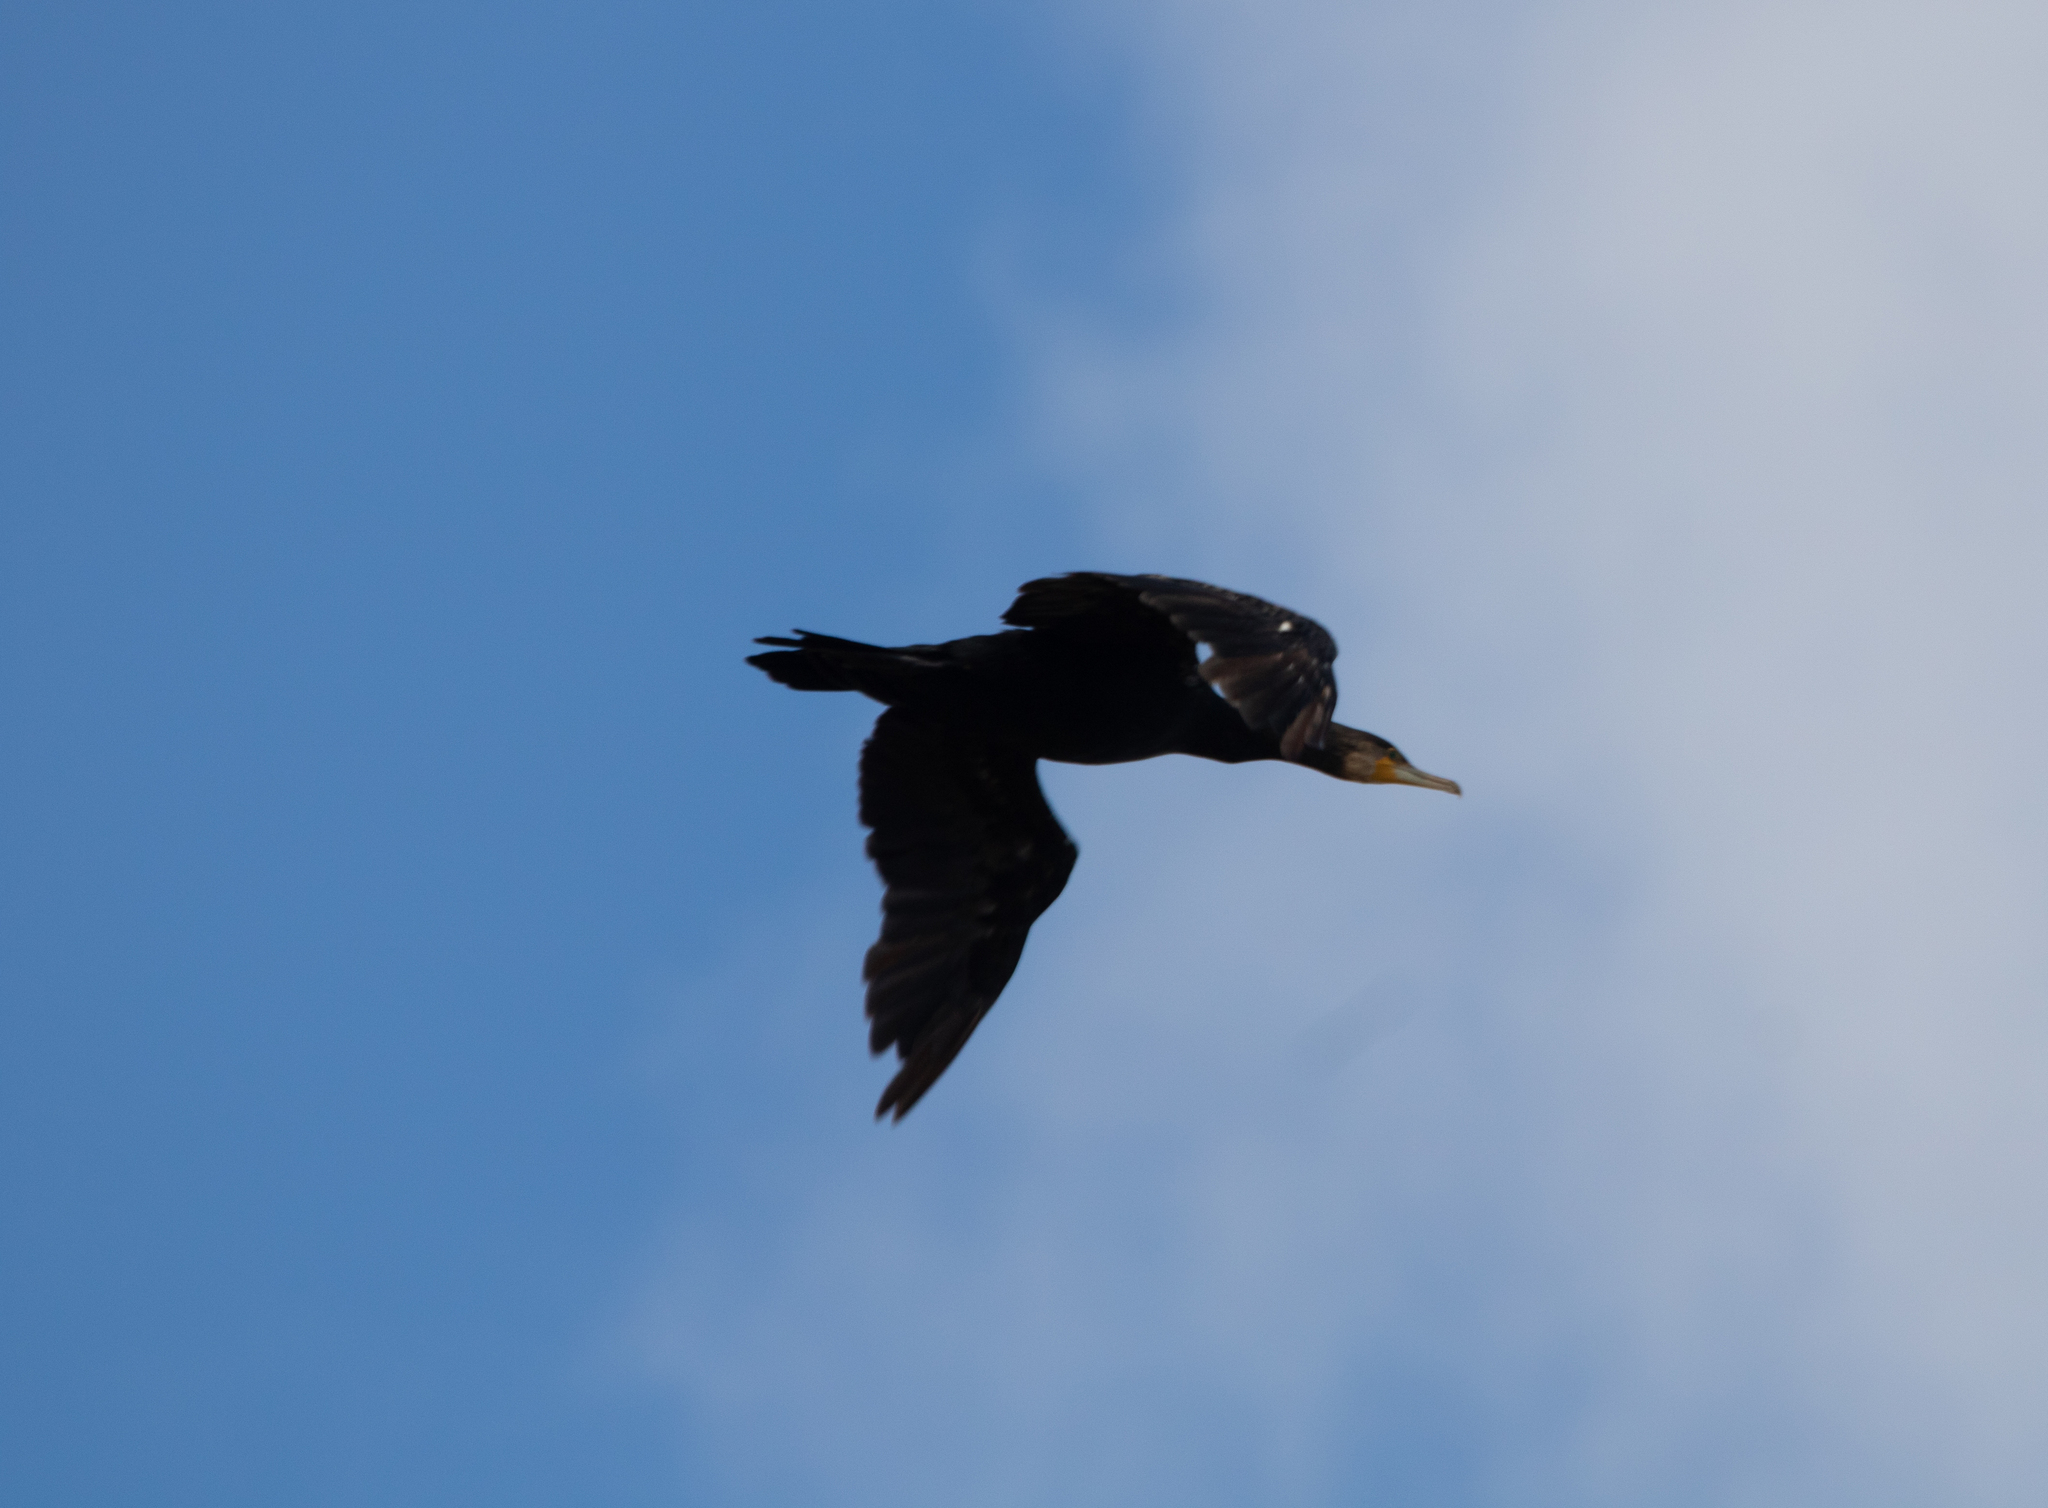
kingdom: Animalia
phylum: Chordata
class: Aves
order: Suliformes
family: Phalacrocoracidae
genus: Phalacrocorax
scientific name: Phalacrocorax carbo
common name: Great cormorant
